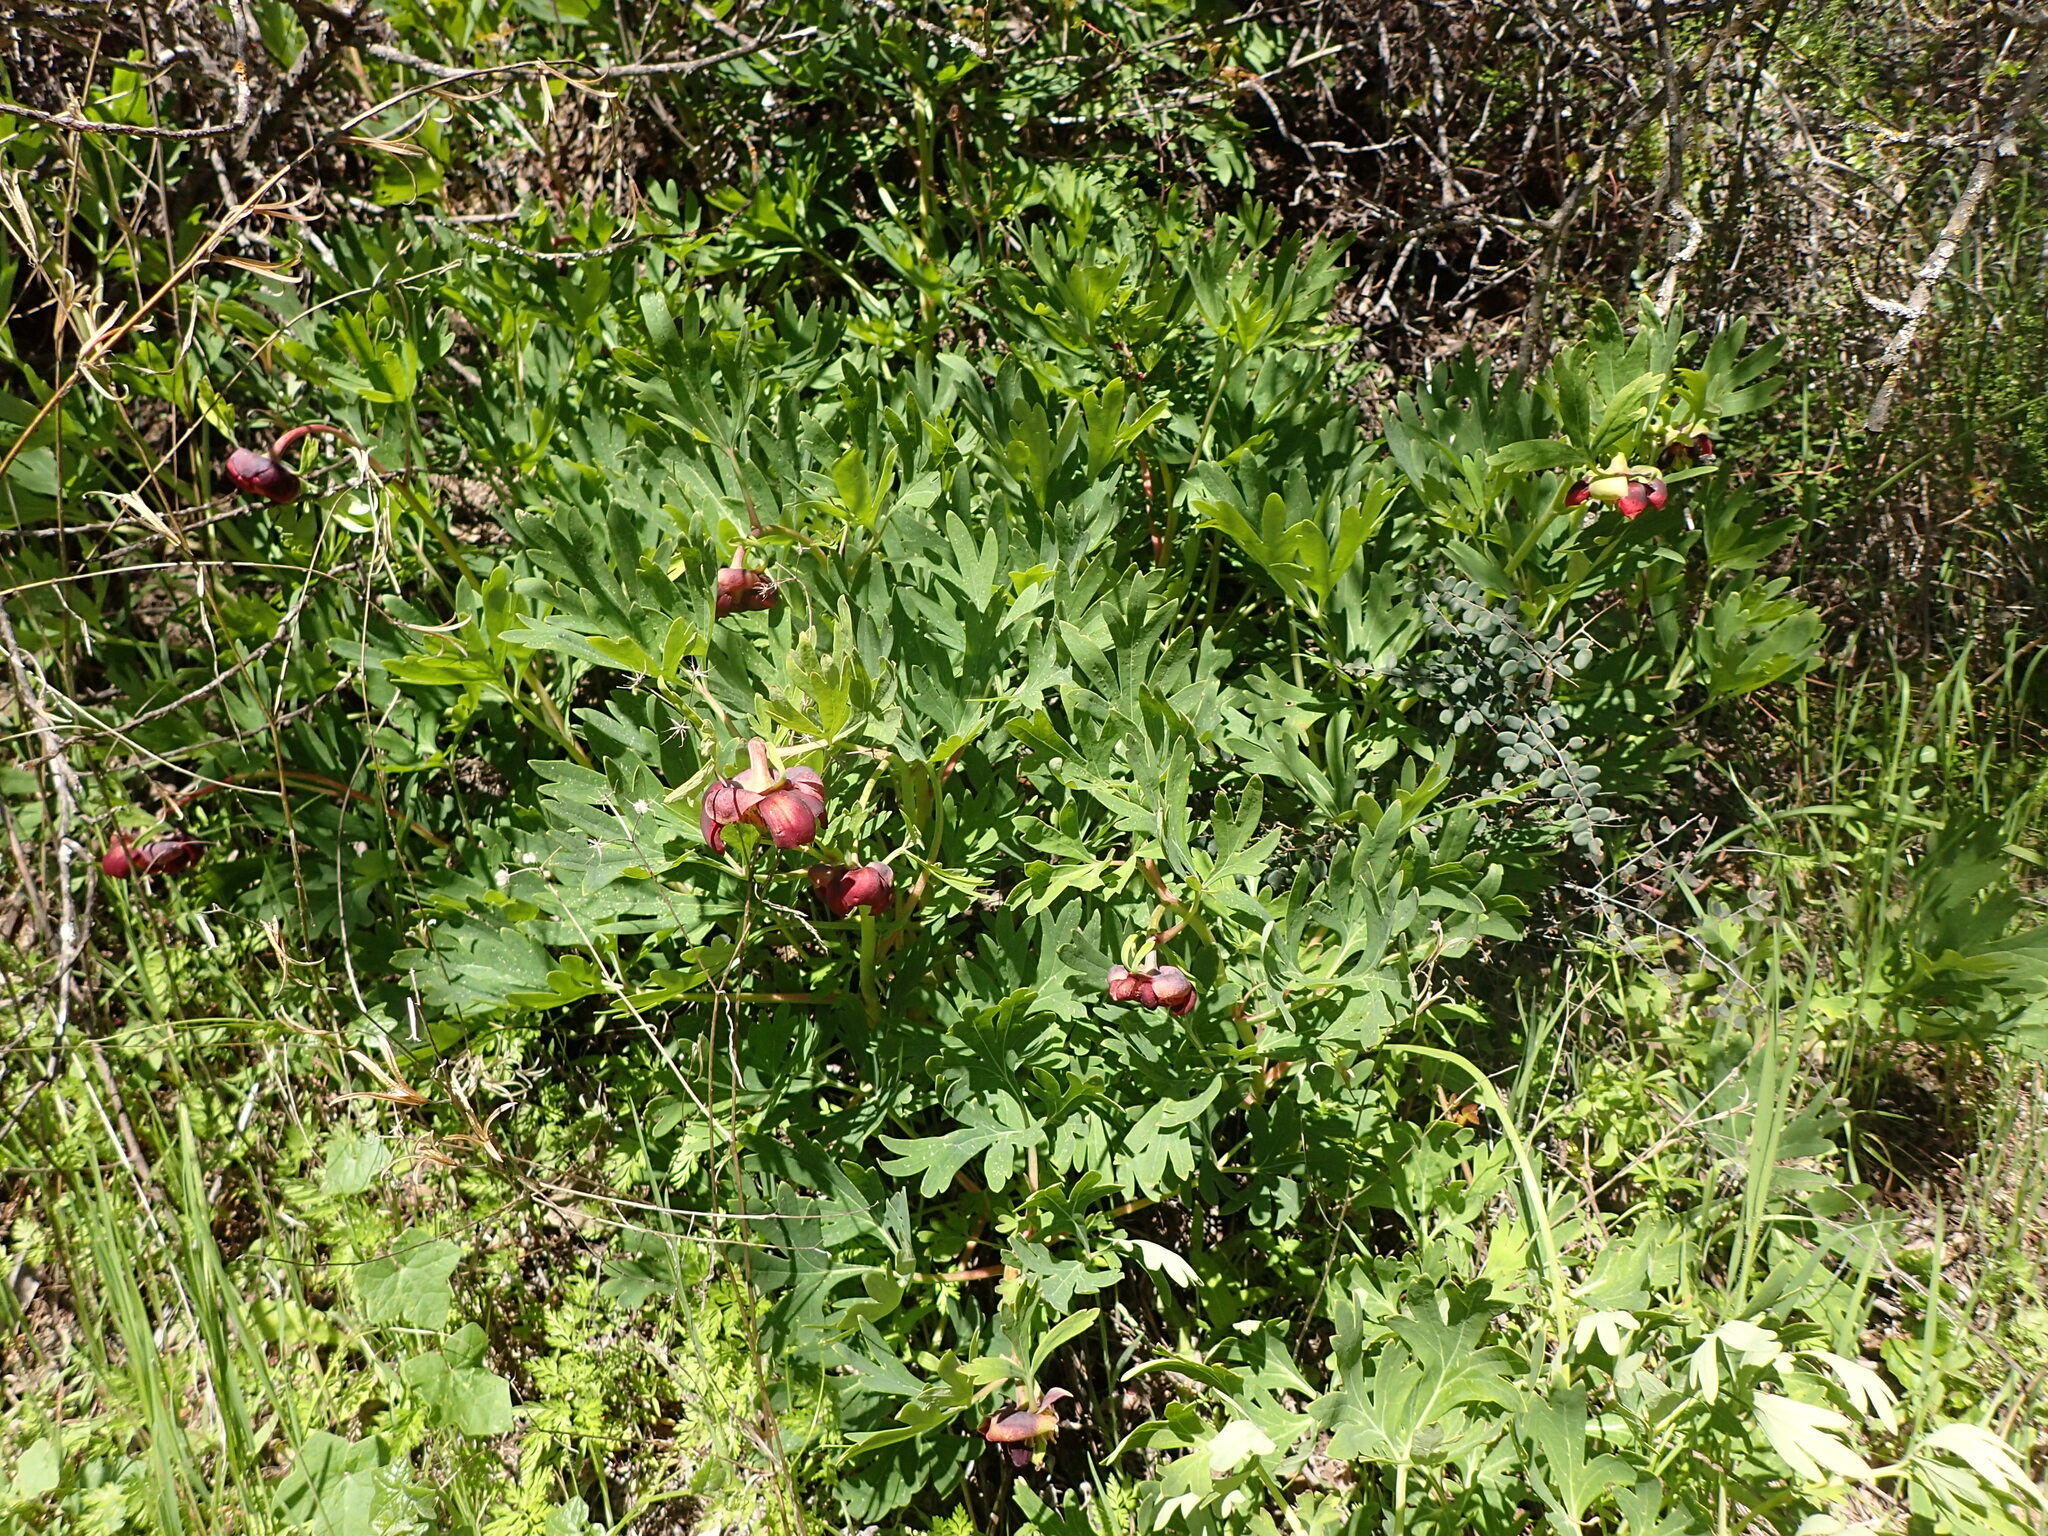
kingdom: Plantae
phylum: Tracheophyta
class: Magnoliopsida
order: Saxifragales
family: Paeoniaceae
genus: Paeonia
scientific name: Paeonia californica
